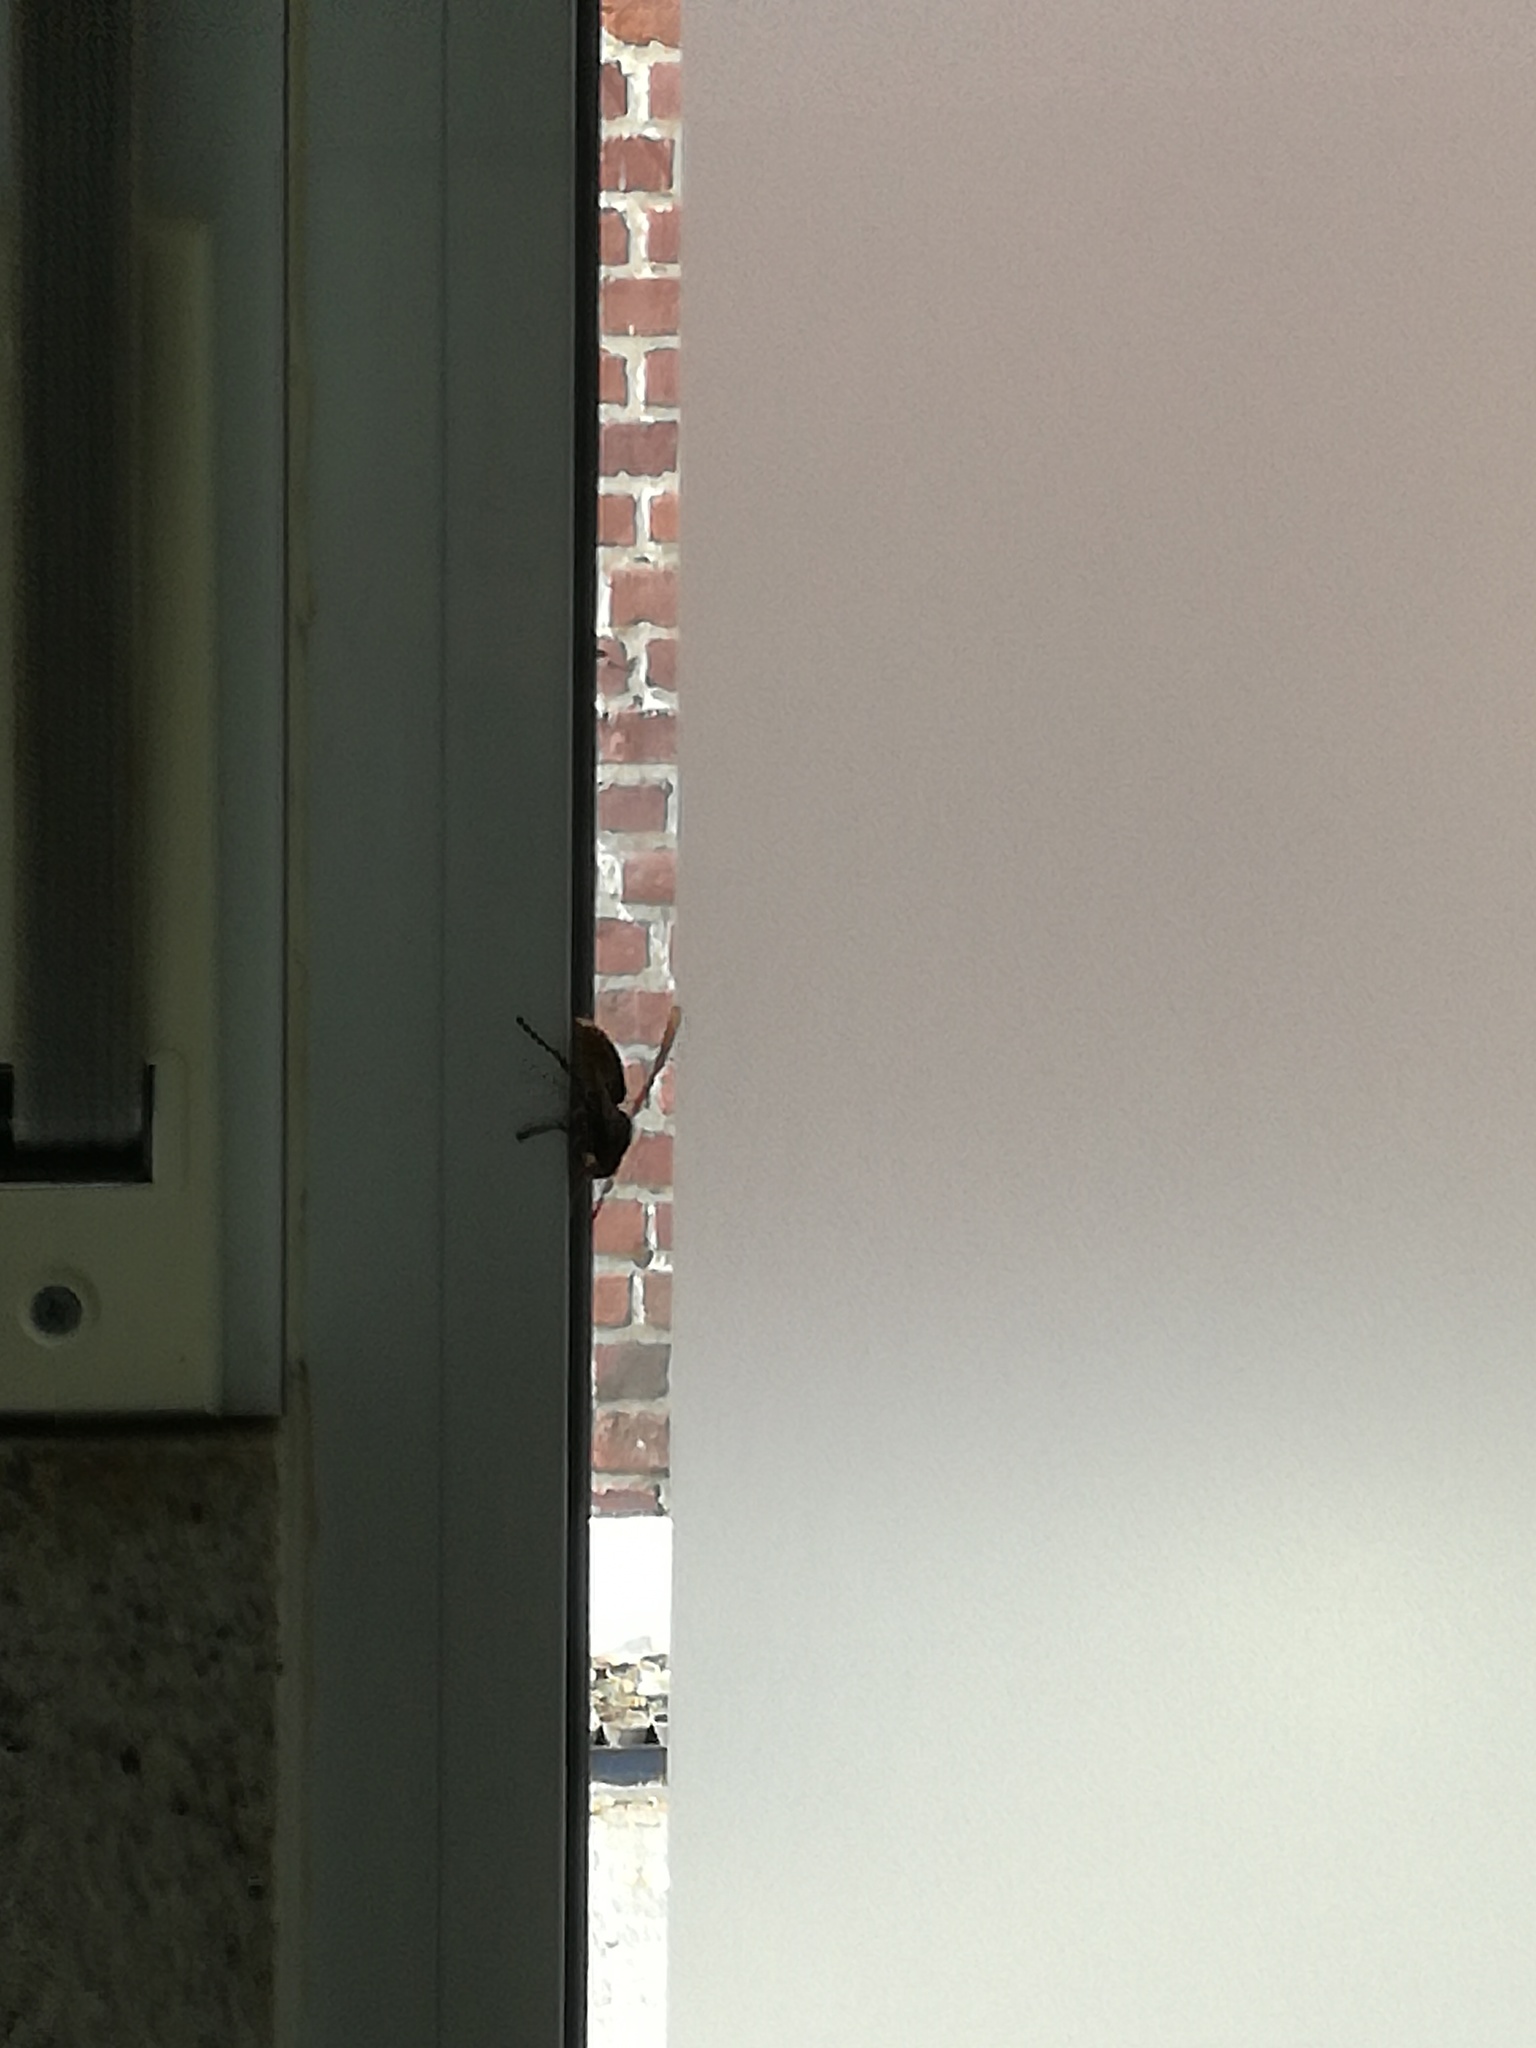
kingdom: Animalia
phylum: Arthropoda
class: Insecta
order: Hymenoptera
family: Vespidae
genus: Vespa
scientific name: Vespa crabro
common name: Hornet
